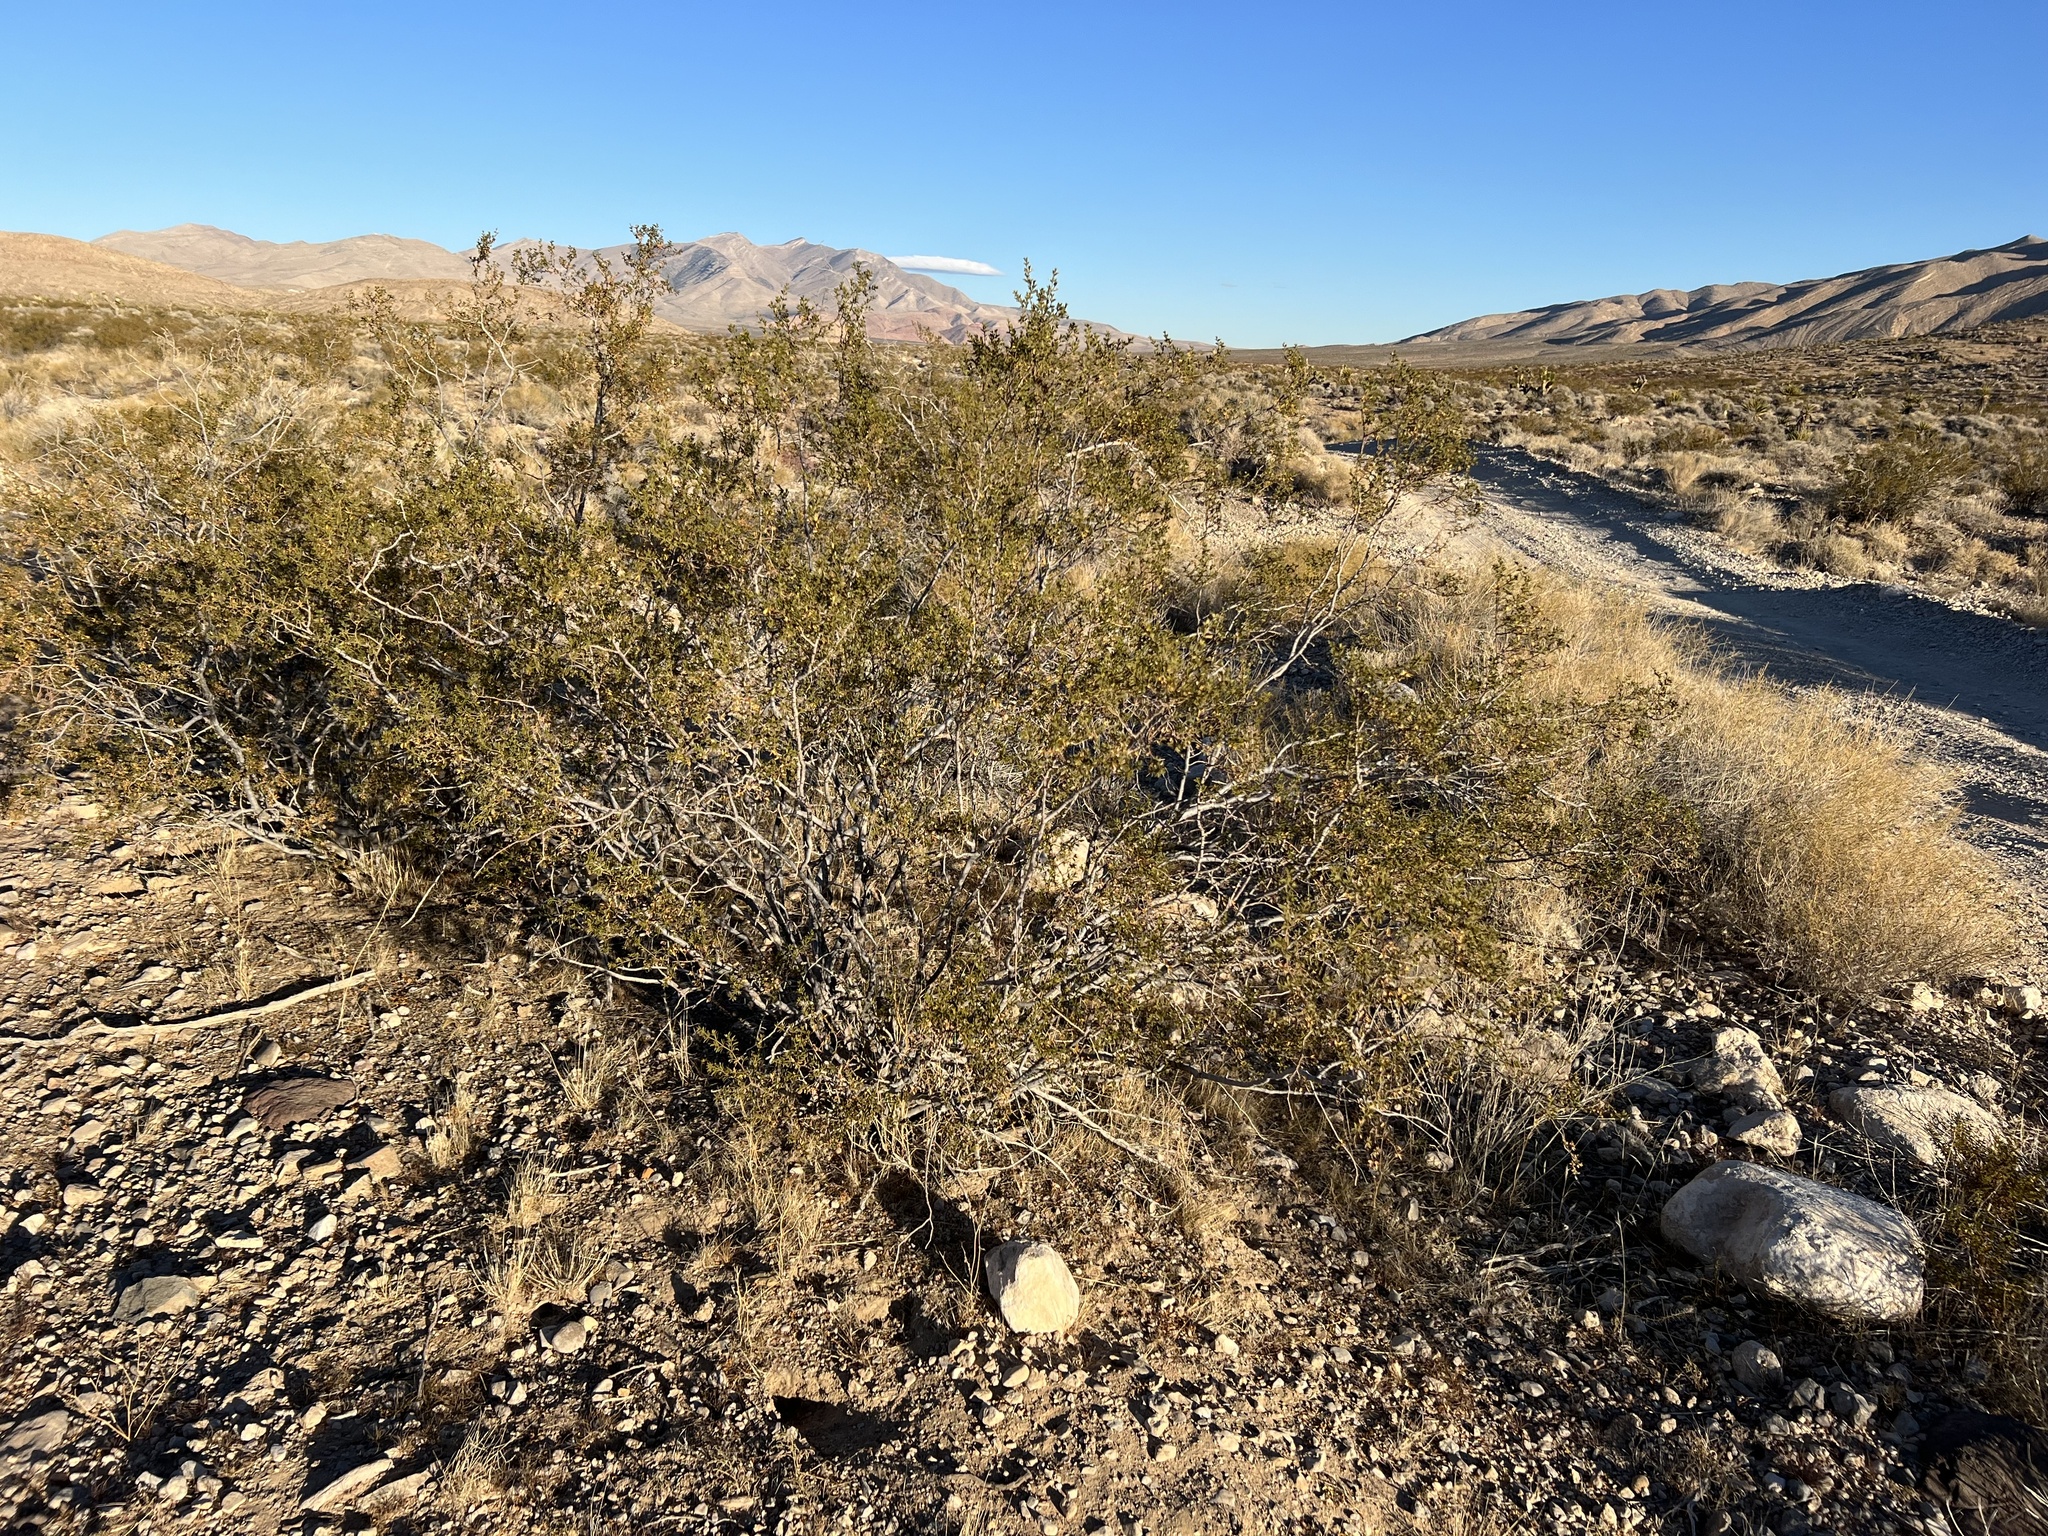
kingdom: Plantae
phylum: Tracheophyta
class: Magnoliopsida
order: Zygophyllales
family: Zygophyllaceae
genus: Larrea
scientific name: Larrea tridentata
